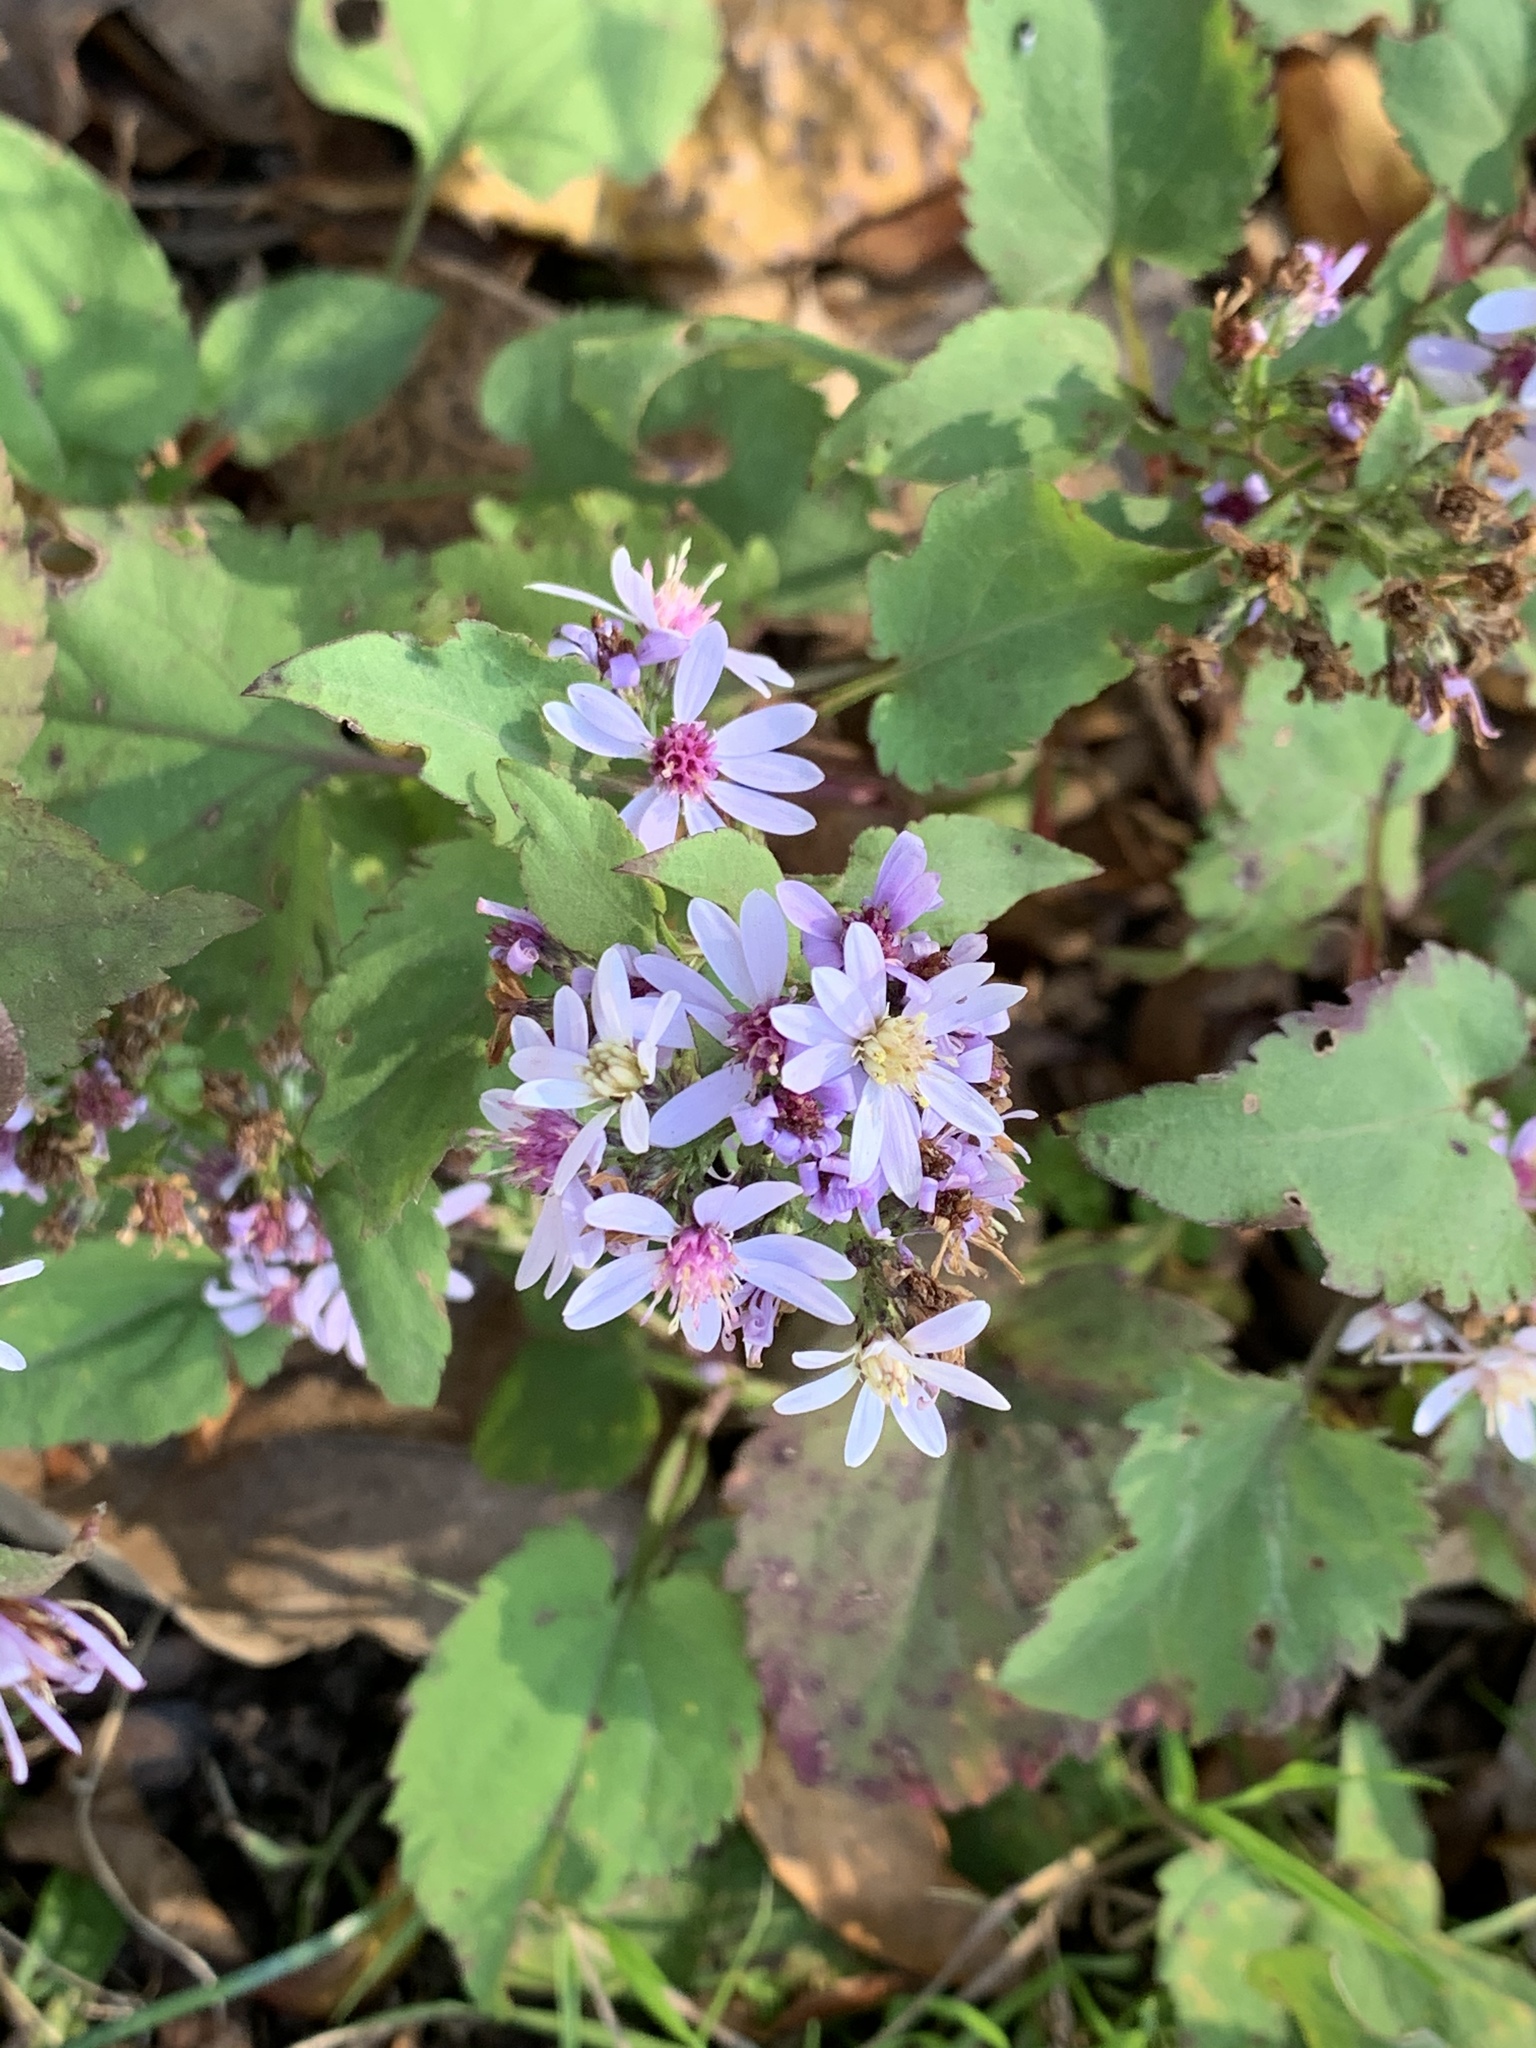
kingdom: Plantae
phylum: Tracheophyta
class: Magnoliopsida
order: Asterales
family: Asteraceae
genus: Symphyotrichum
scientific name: Symphyotrichum cordifolium
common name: Beeweed
